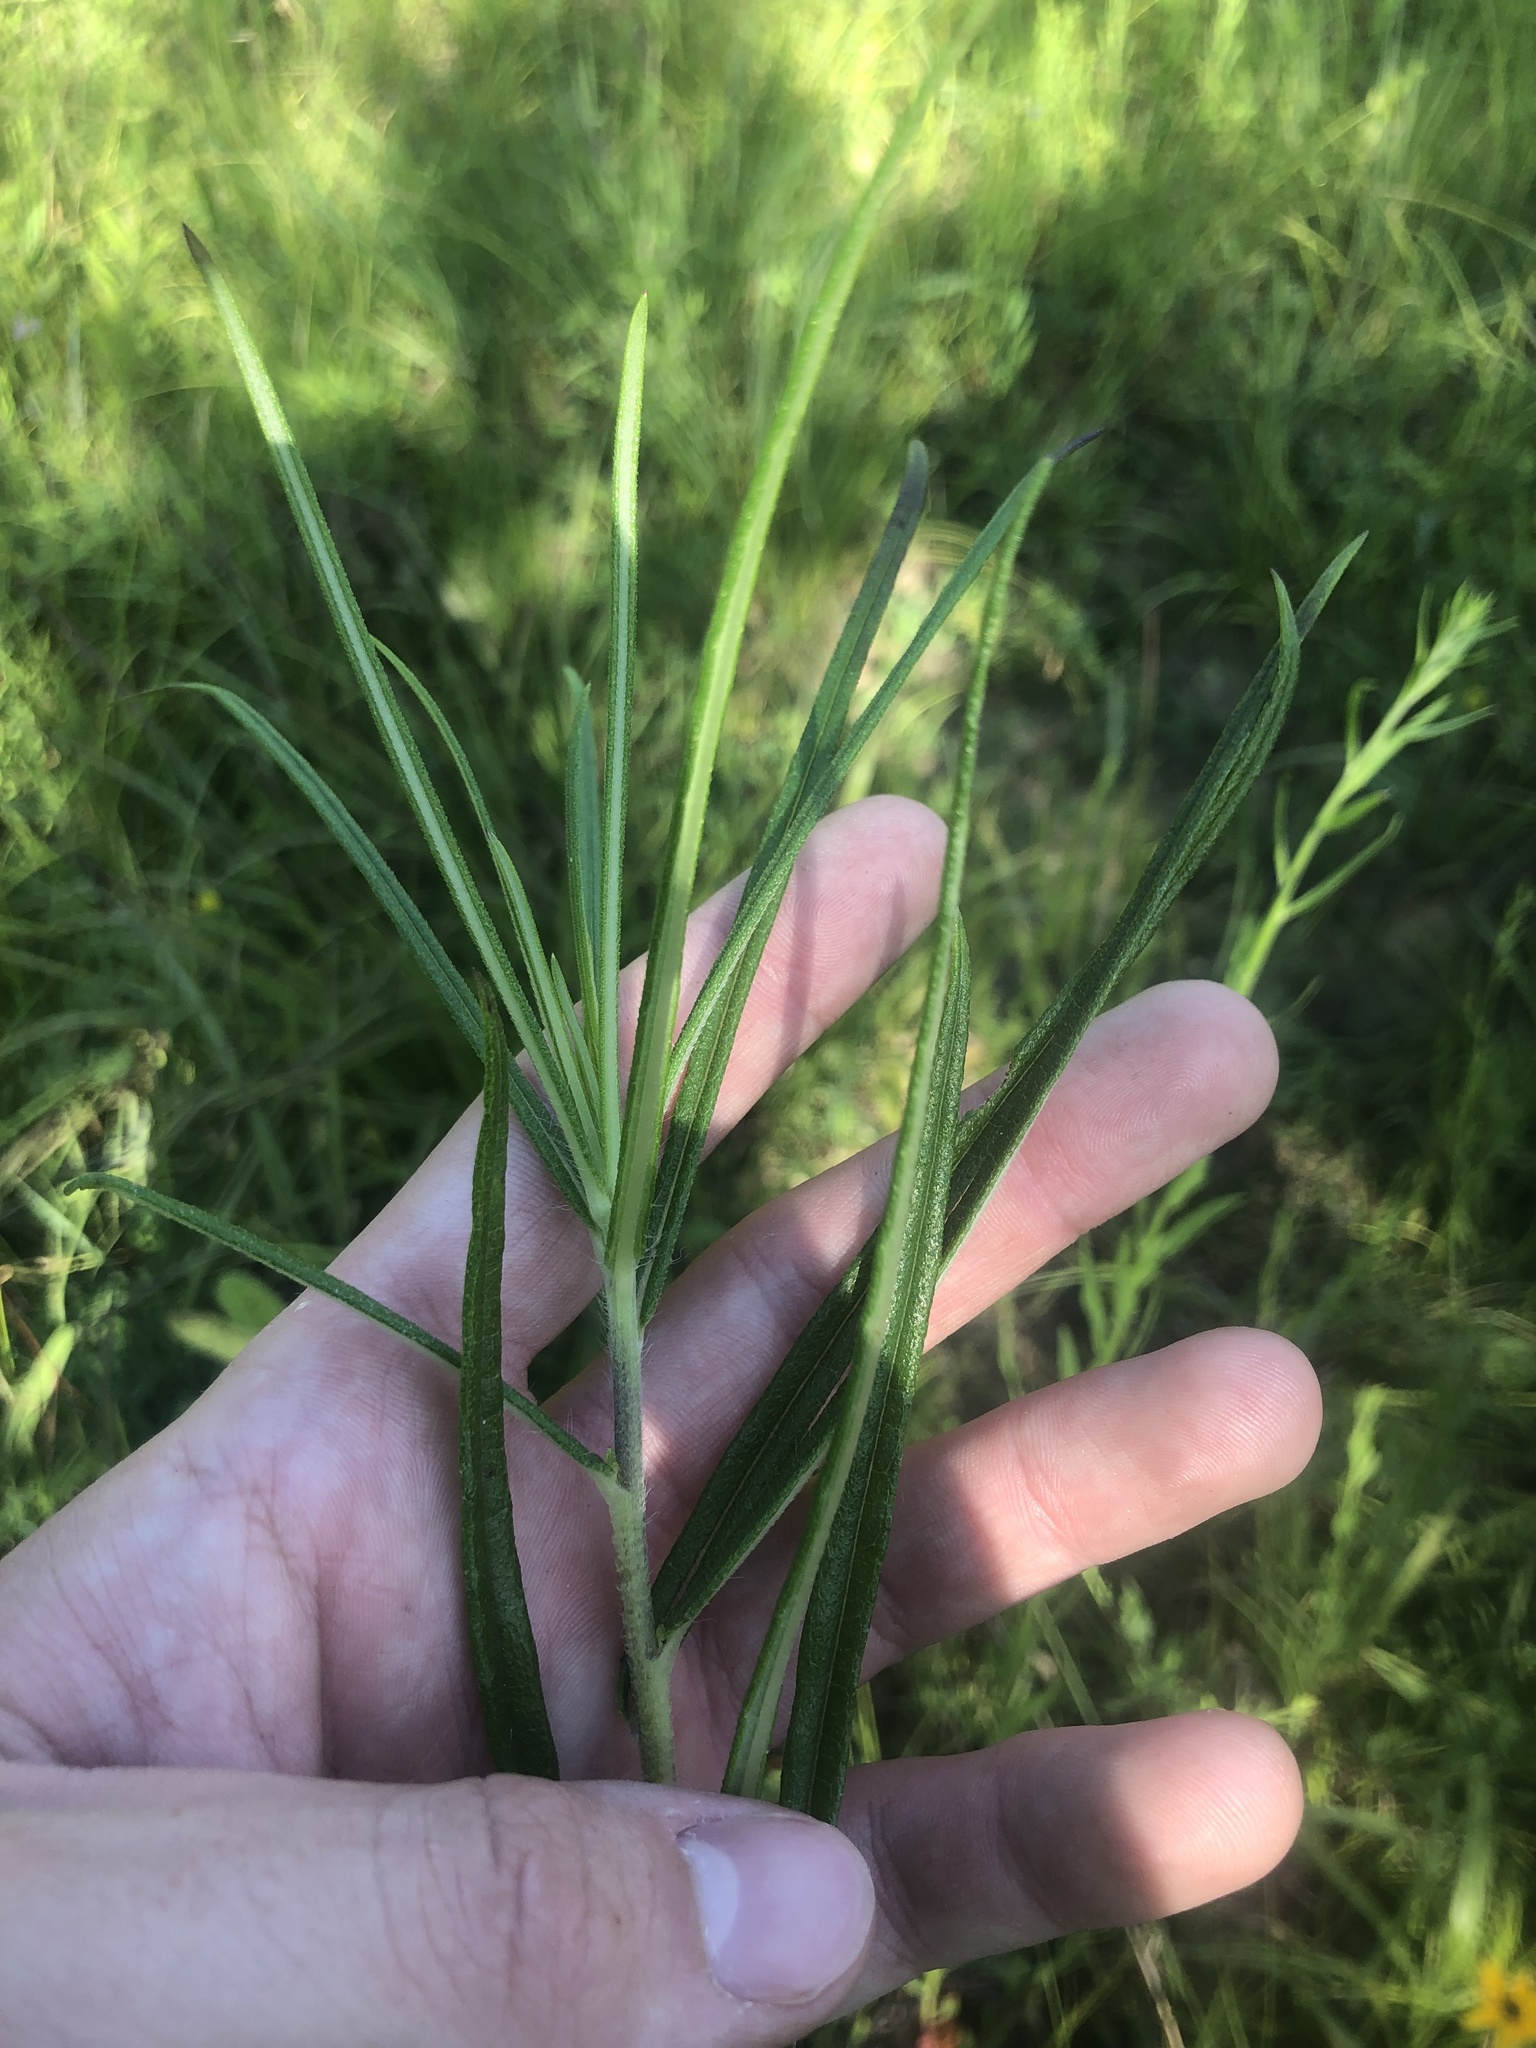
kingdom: Plantae
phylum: Tracheophyta
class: Magnoliopsida
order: Asterales
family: Asteraceae
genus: Helianthus
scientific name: Helianthus angustifolius
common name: Swamp sunflower
